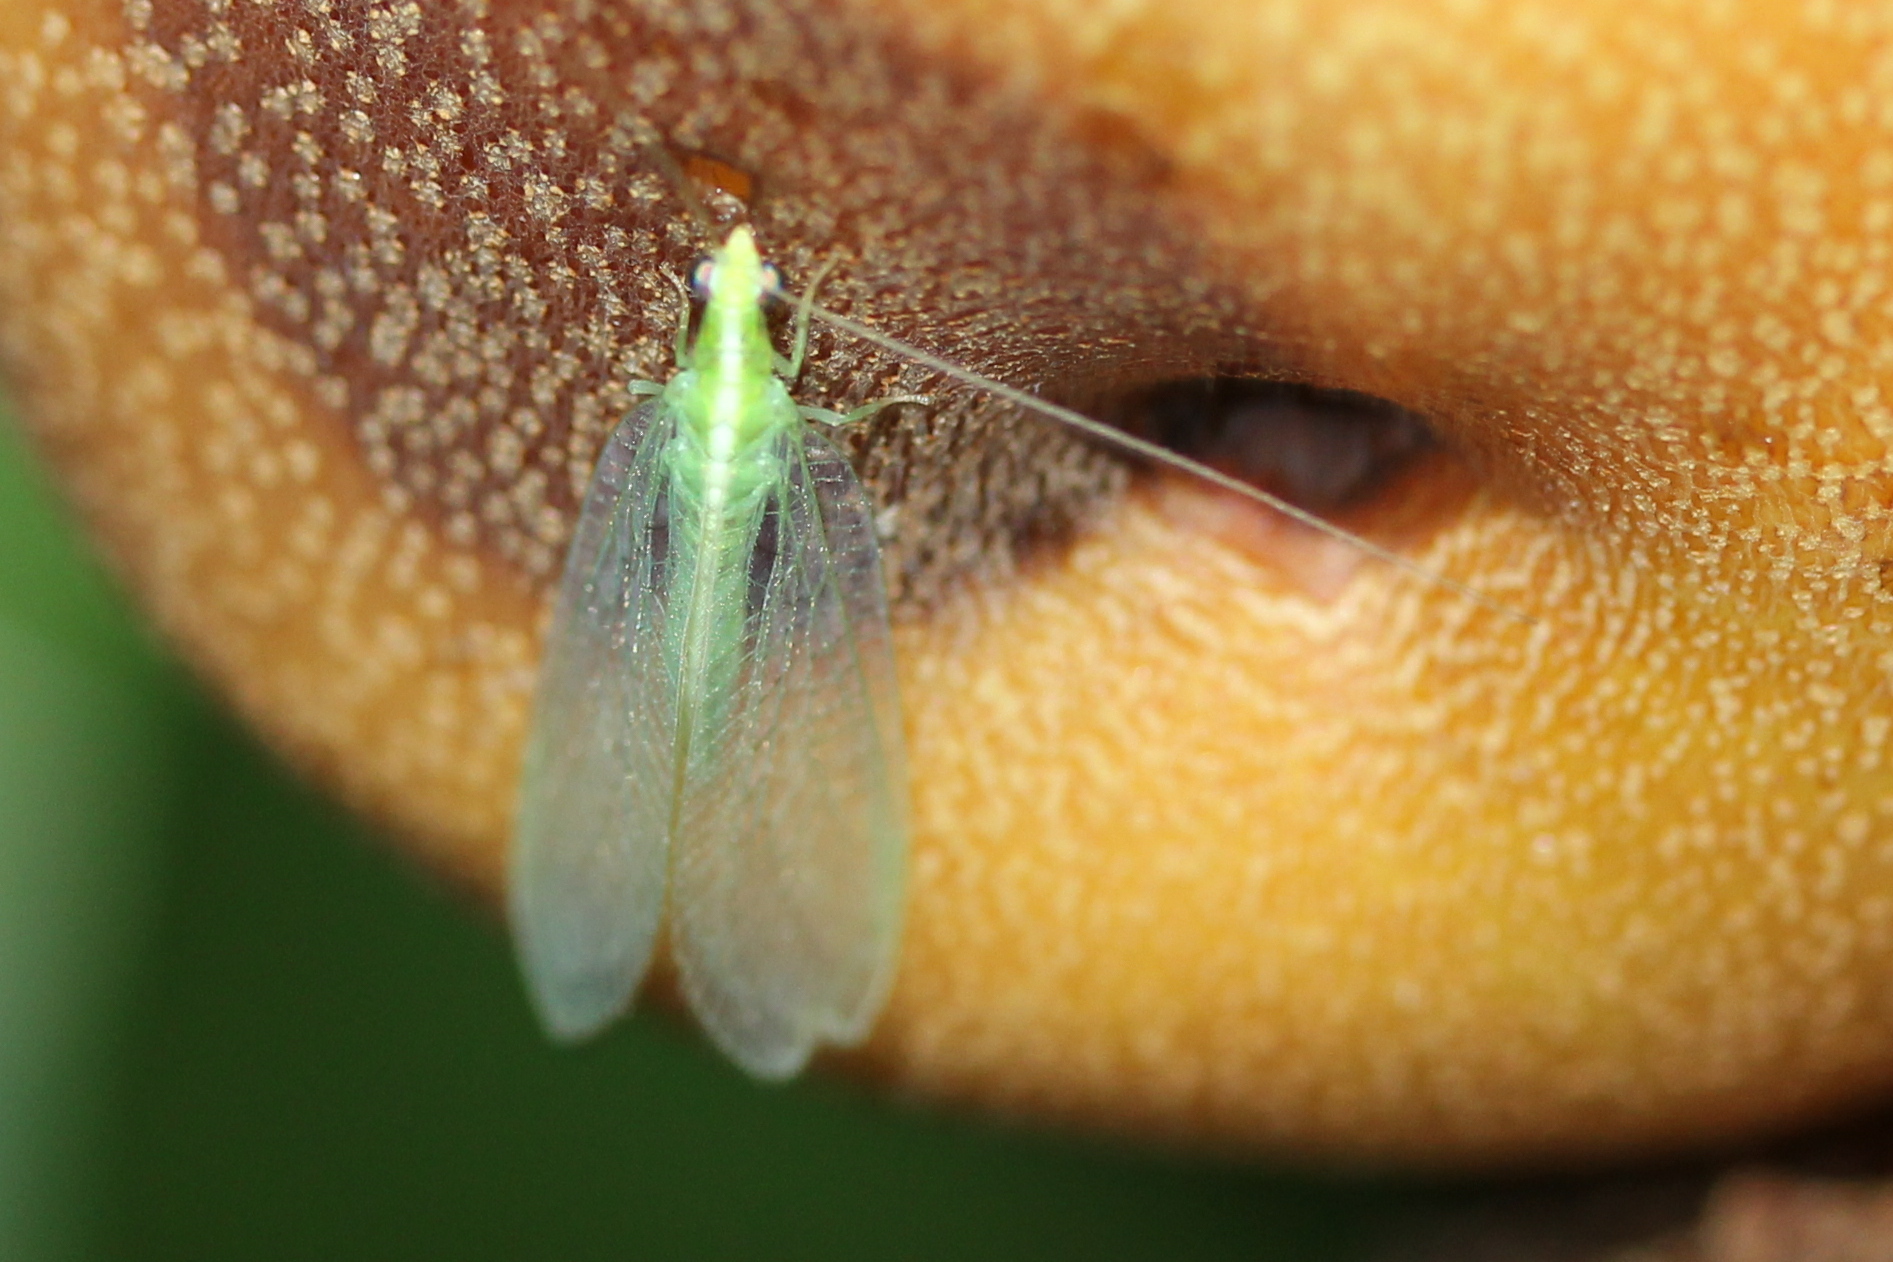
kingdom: Animalia
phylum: Arthropoda
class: Insecta
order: Neuroptera
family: Chrysopidae
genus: Chrysoperla
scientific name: Chrysoperla rufilabris
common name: Red-lipped green lacewing
